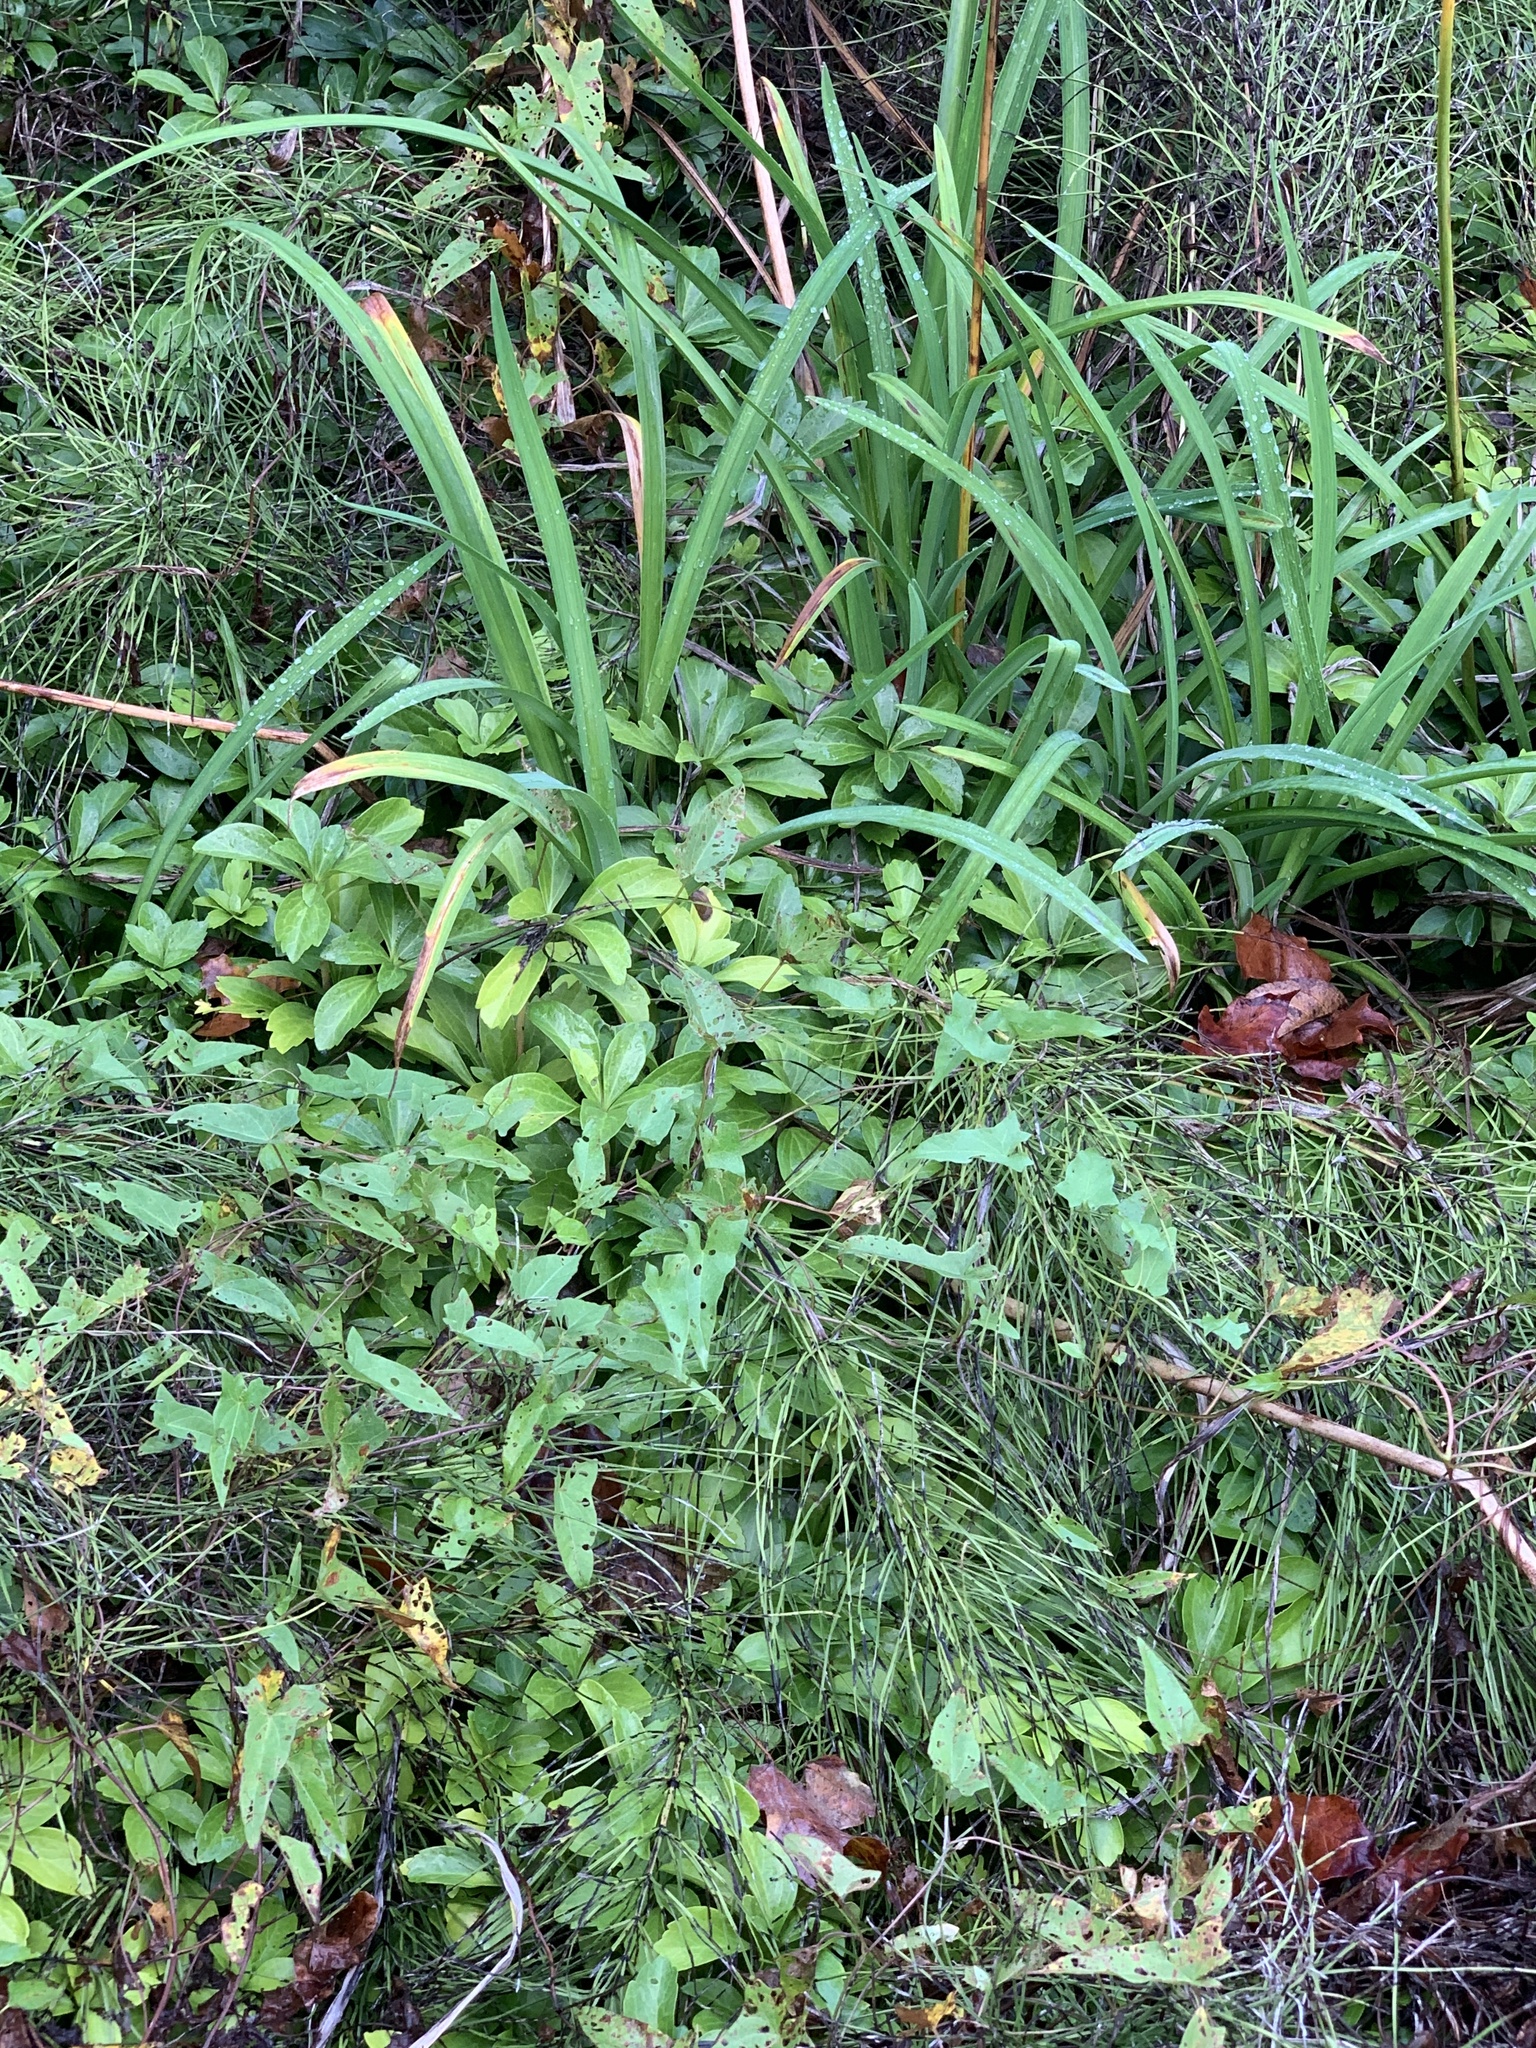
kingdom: Plantae
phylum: Tracheophyta
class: Polypodiopsida
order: Equisetales
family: Equisetaceae
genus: Equisetum
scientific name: Equisetum arvense
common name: Field horsetail
